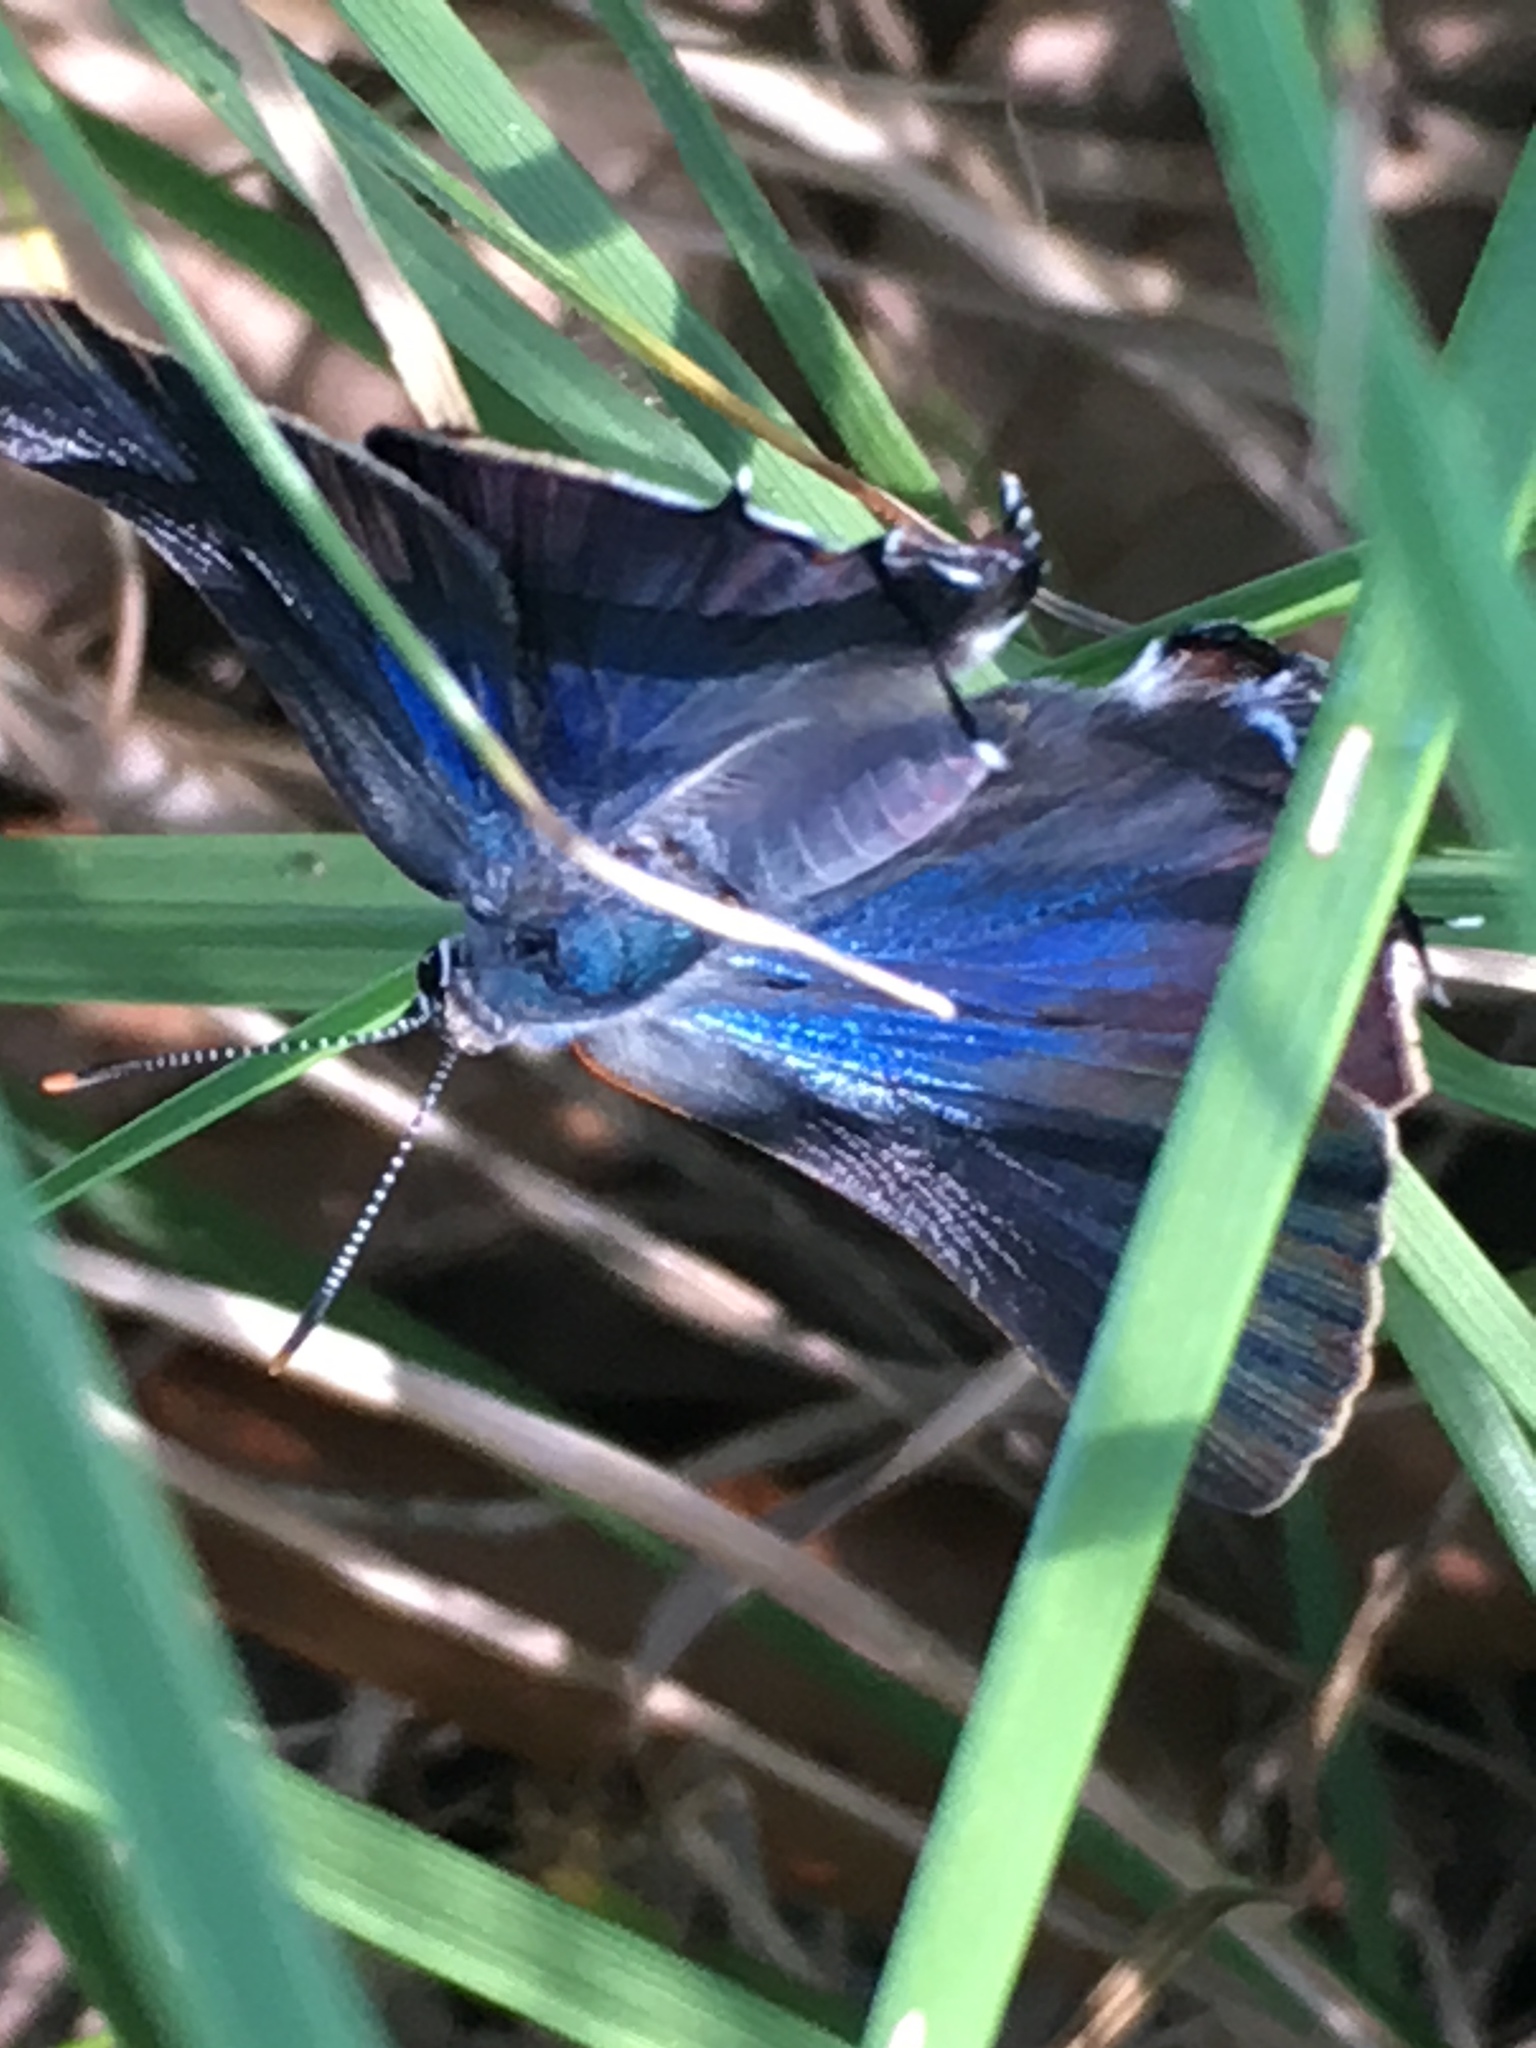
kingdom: Animalia
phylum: Arthropoda
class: Insecta
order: Lepidoptera
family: Lycaenidae
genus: Parrhasius
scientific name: Parrhasius m-album
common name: White m hairstreak
